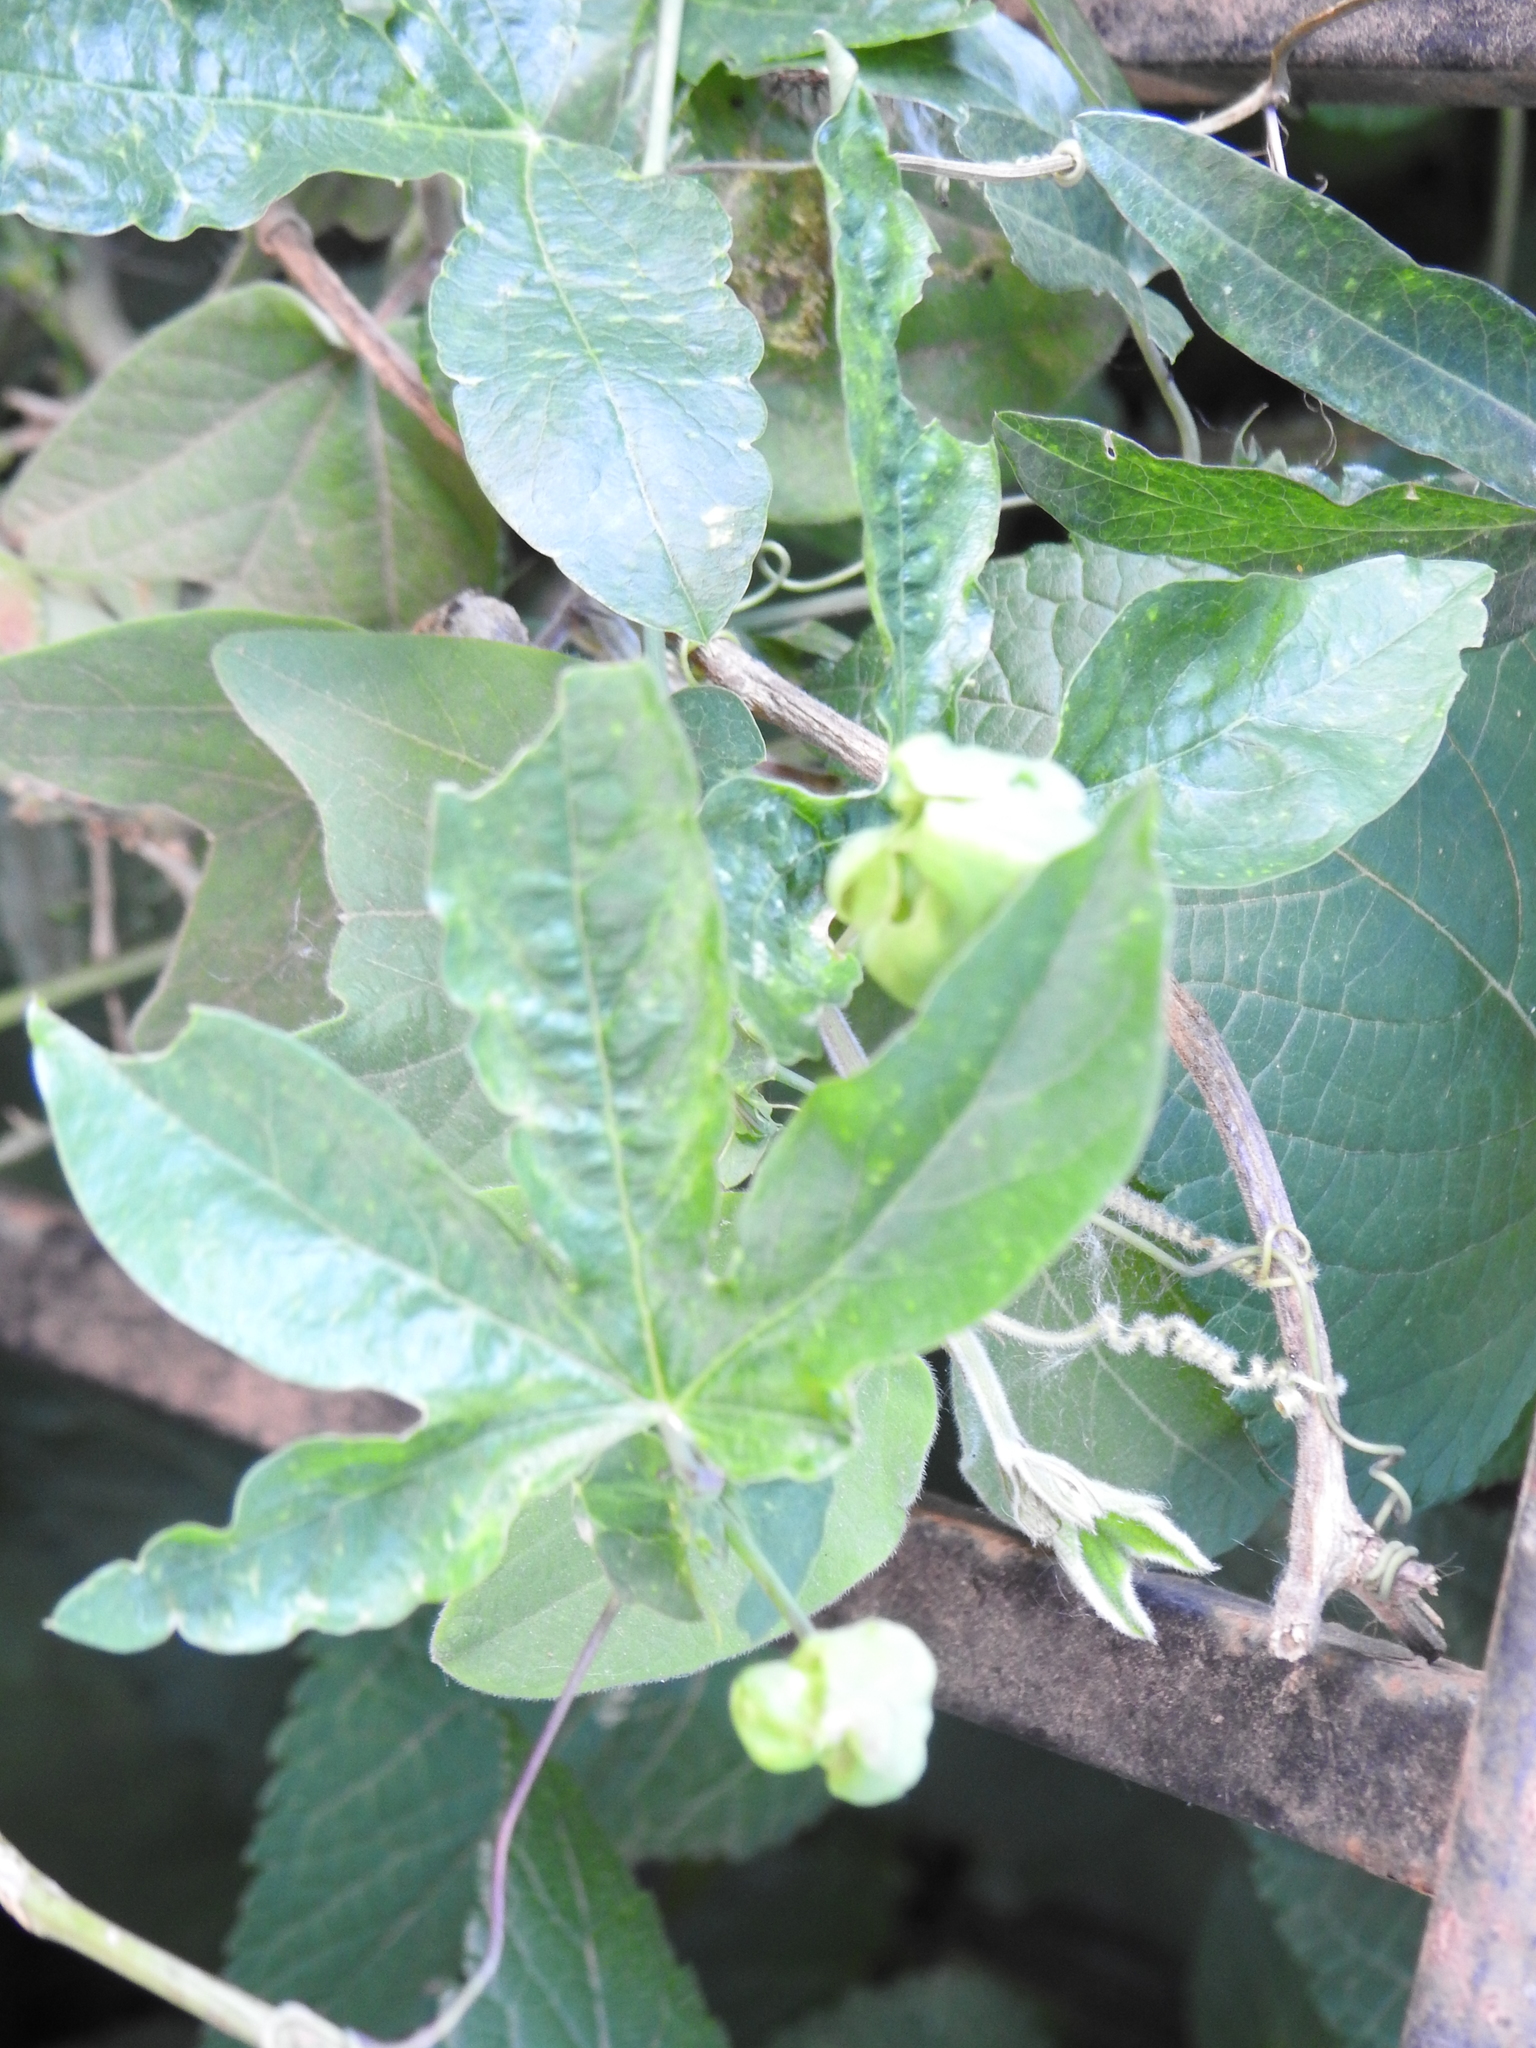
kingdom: Plantae
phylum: Tracheophyta
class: Magnoliopsida
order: Malpighiales
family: Passifloraceae
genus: Passiflora
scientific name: Passiflora caerulea
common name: Blue passionflower
